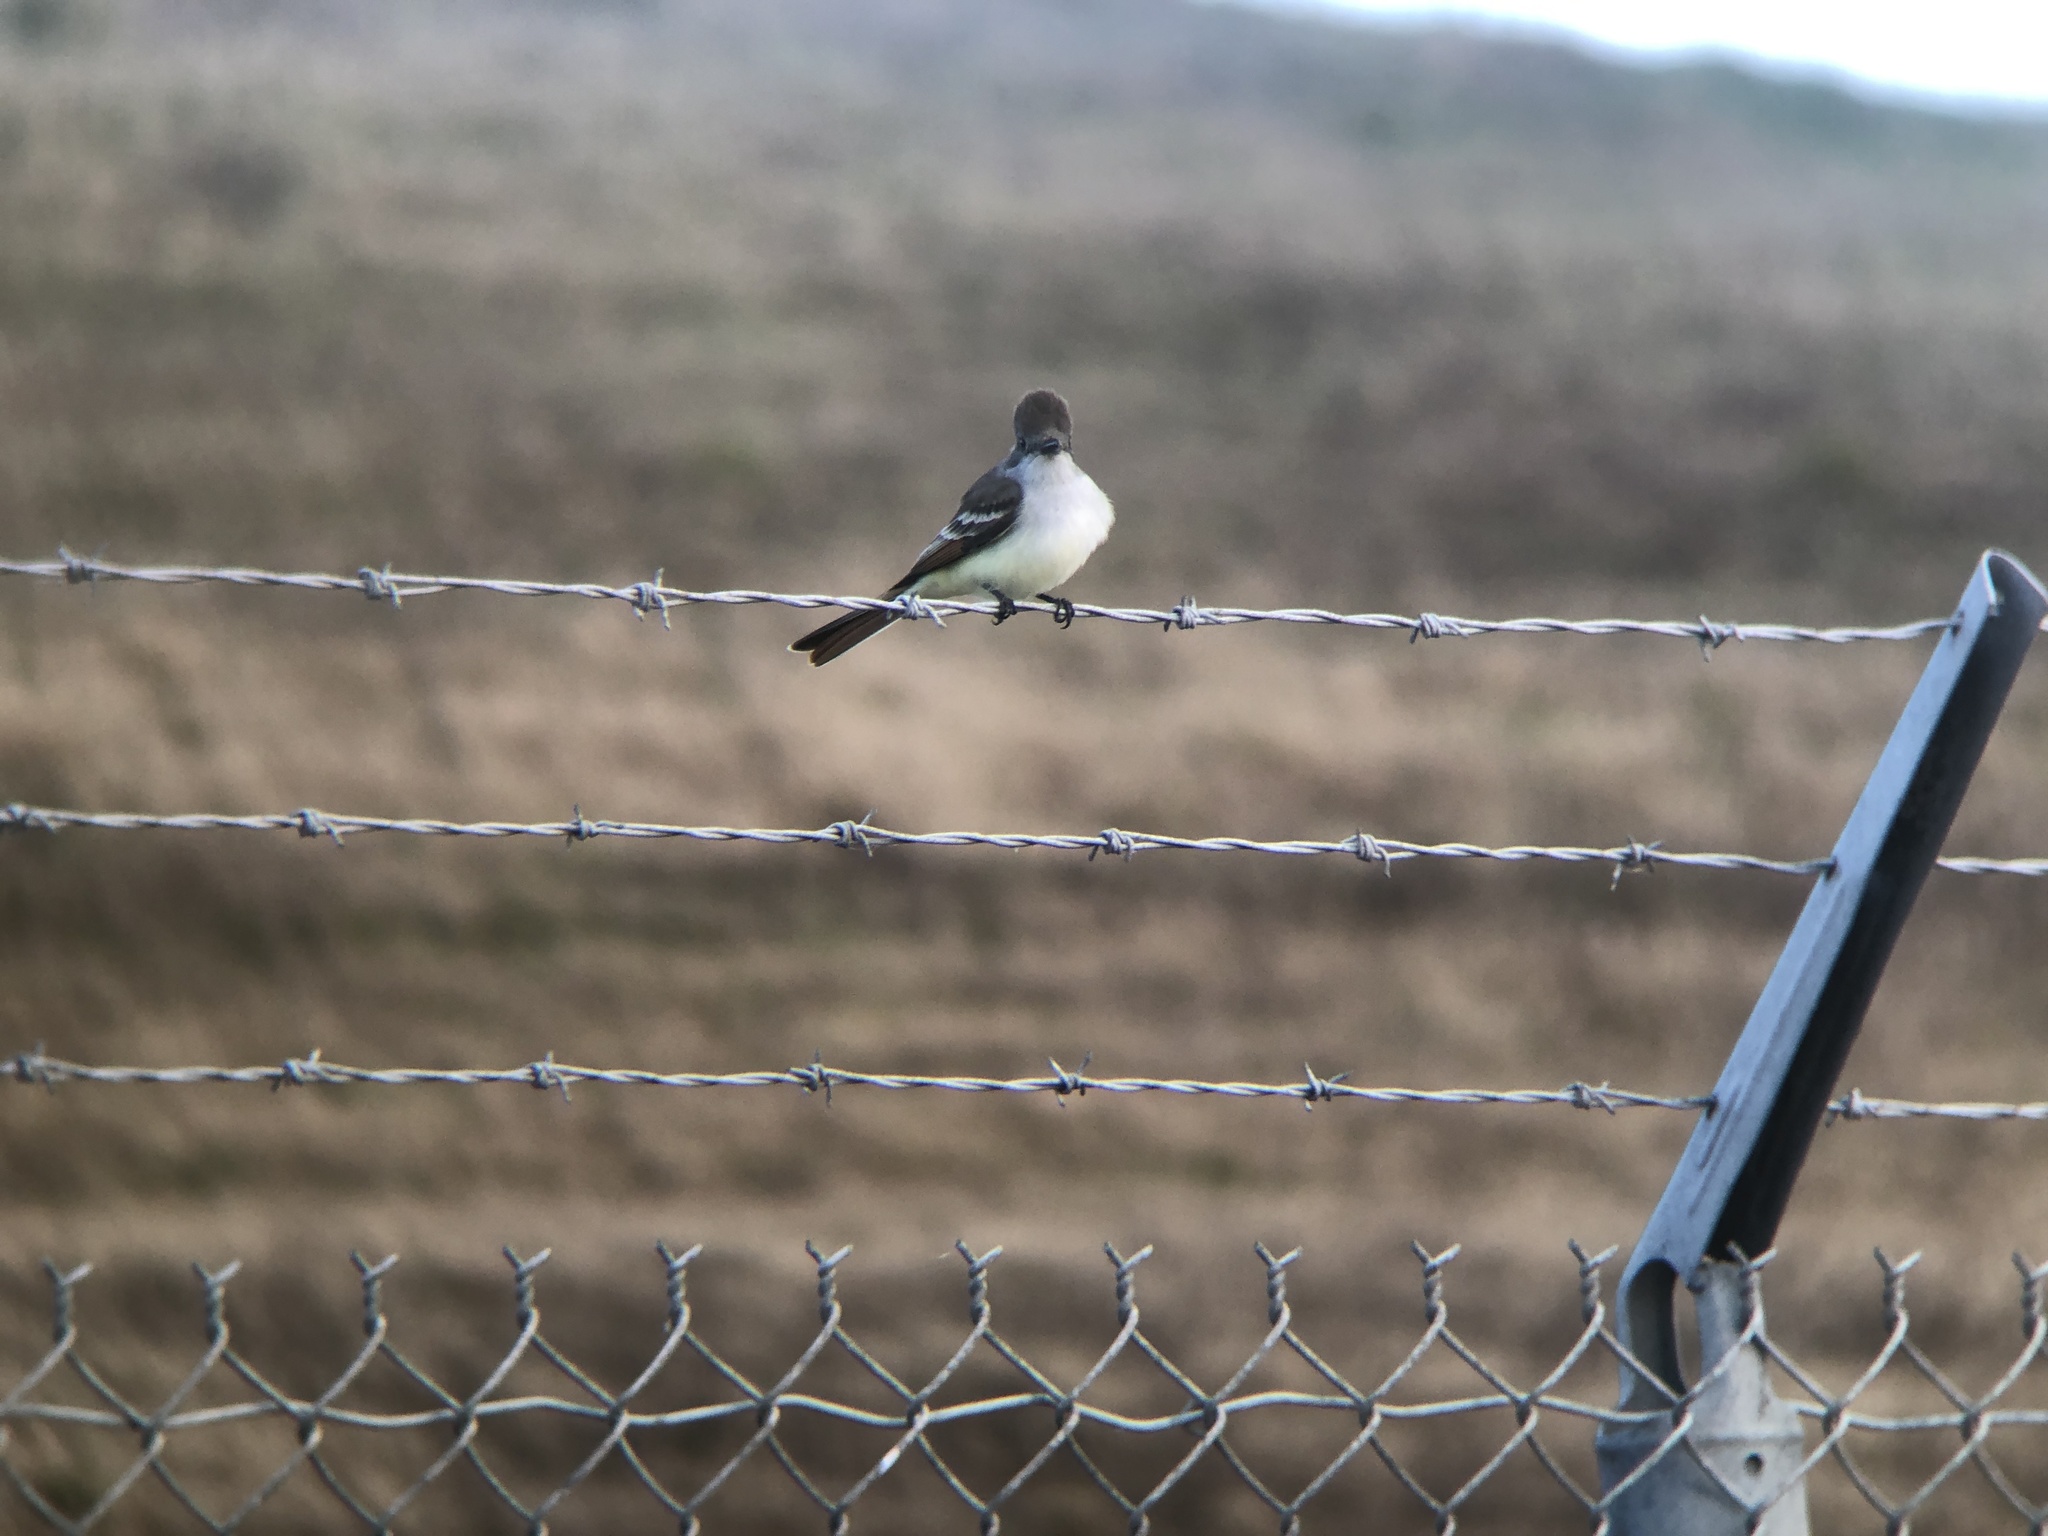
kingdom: Animalia
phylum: Chordata
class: Aves
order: Passeriformes
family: Tyrannidae
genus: Myiarchus
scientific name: Myiarchus cinerascens
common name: Ash-throated flycatcher
